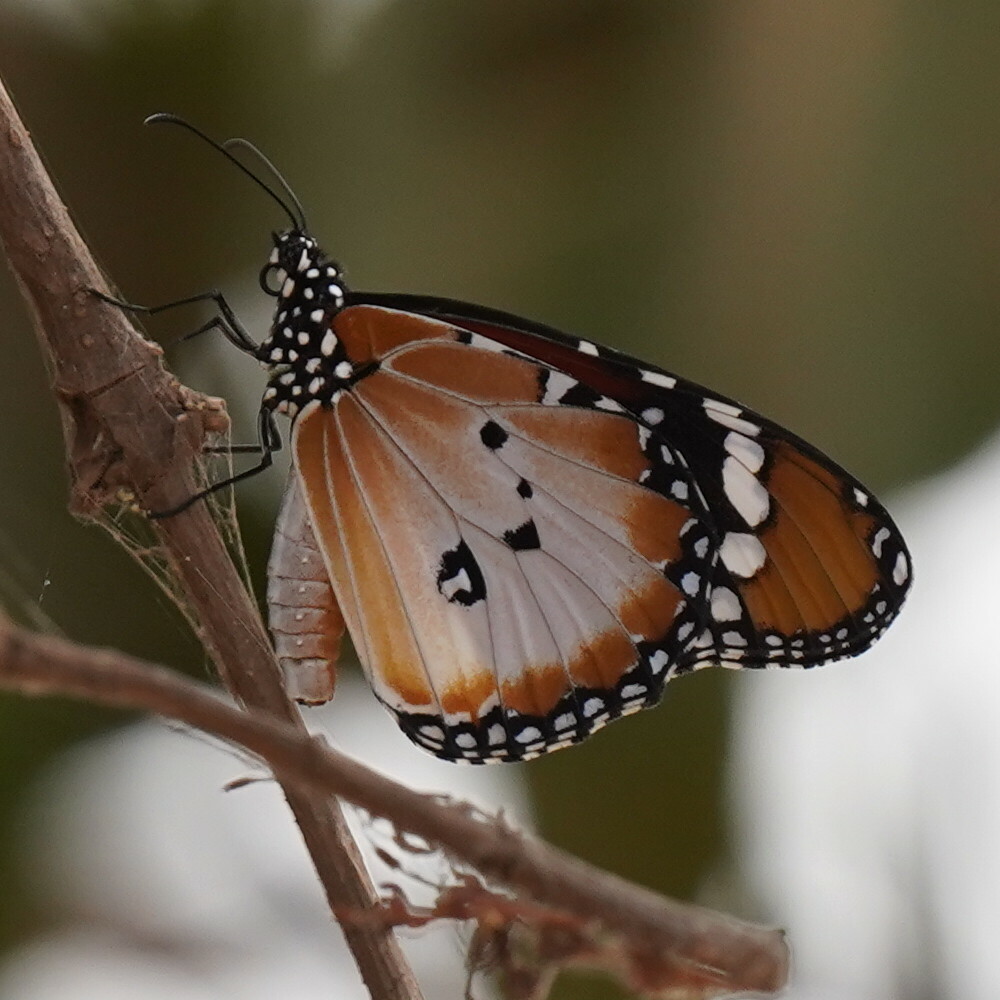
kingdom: Animalia
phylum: Arthropoda
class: Insecta
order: Lepidoptera
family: Nymphalidae
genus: Danaus
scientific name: Danaus chrysippus
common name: Plain tiger
